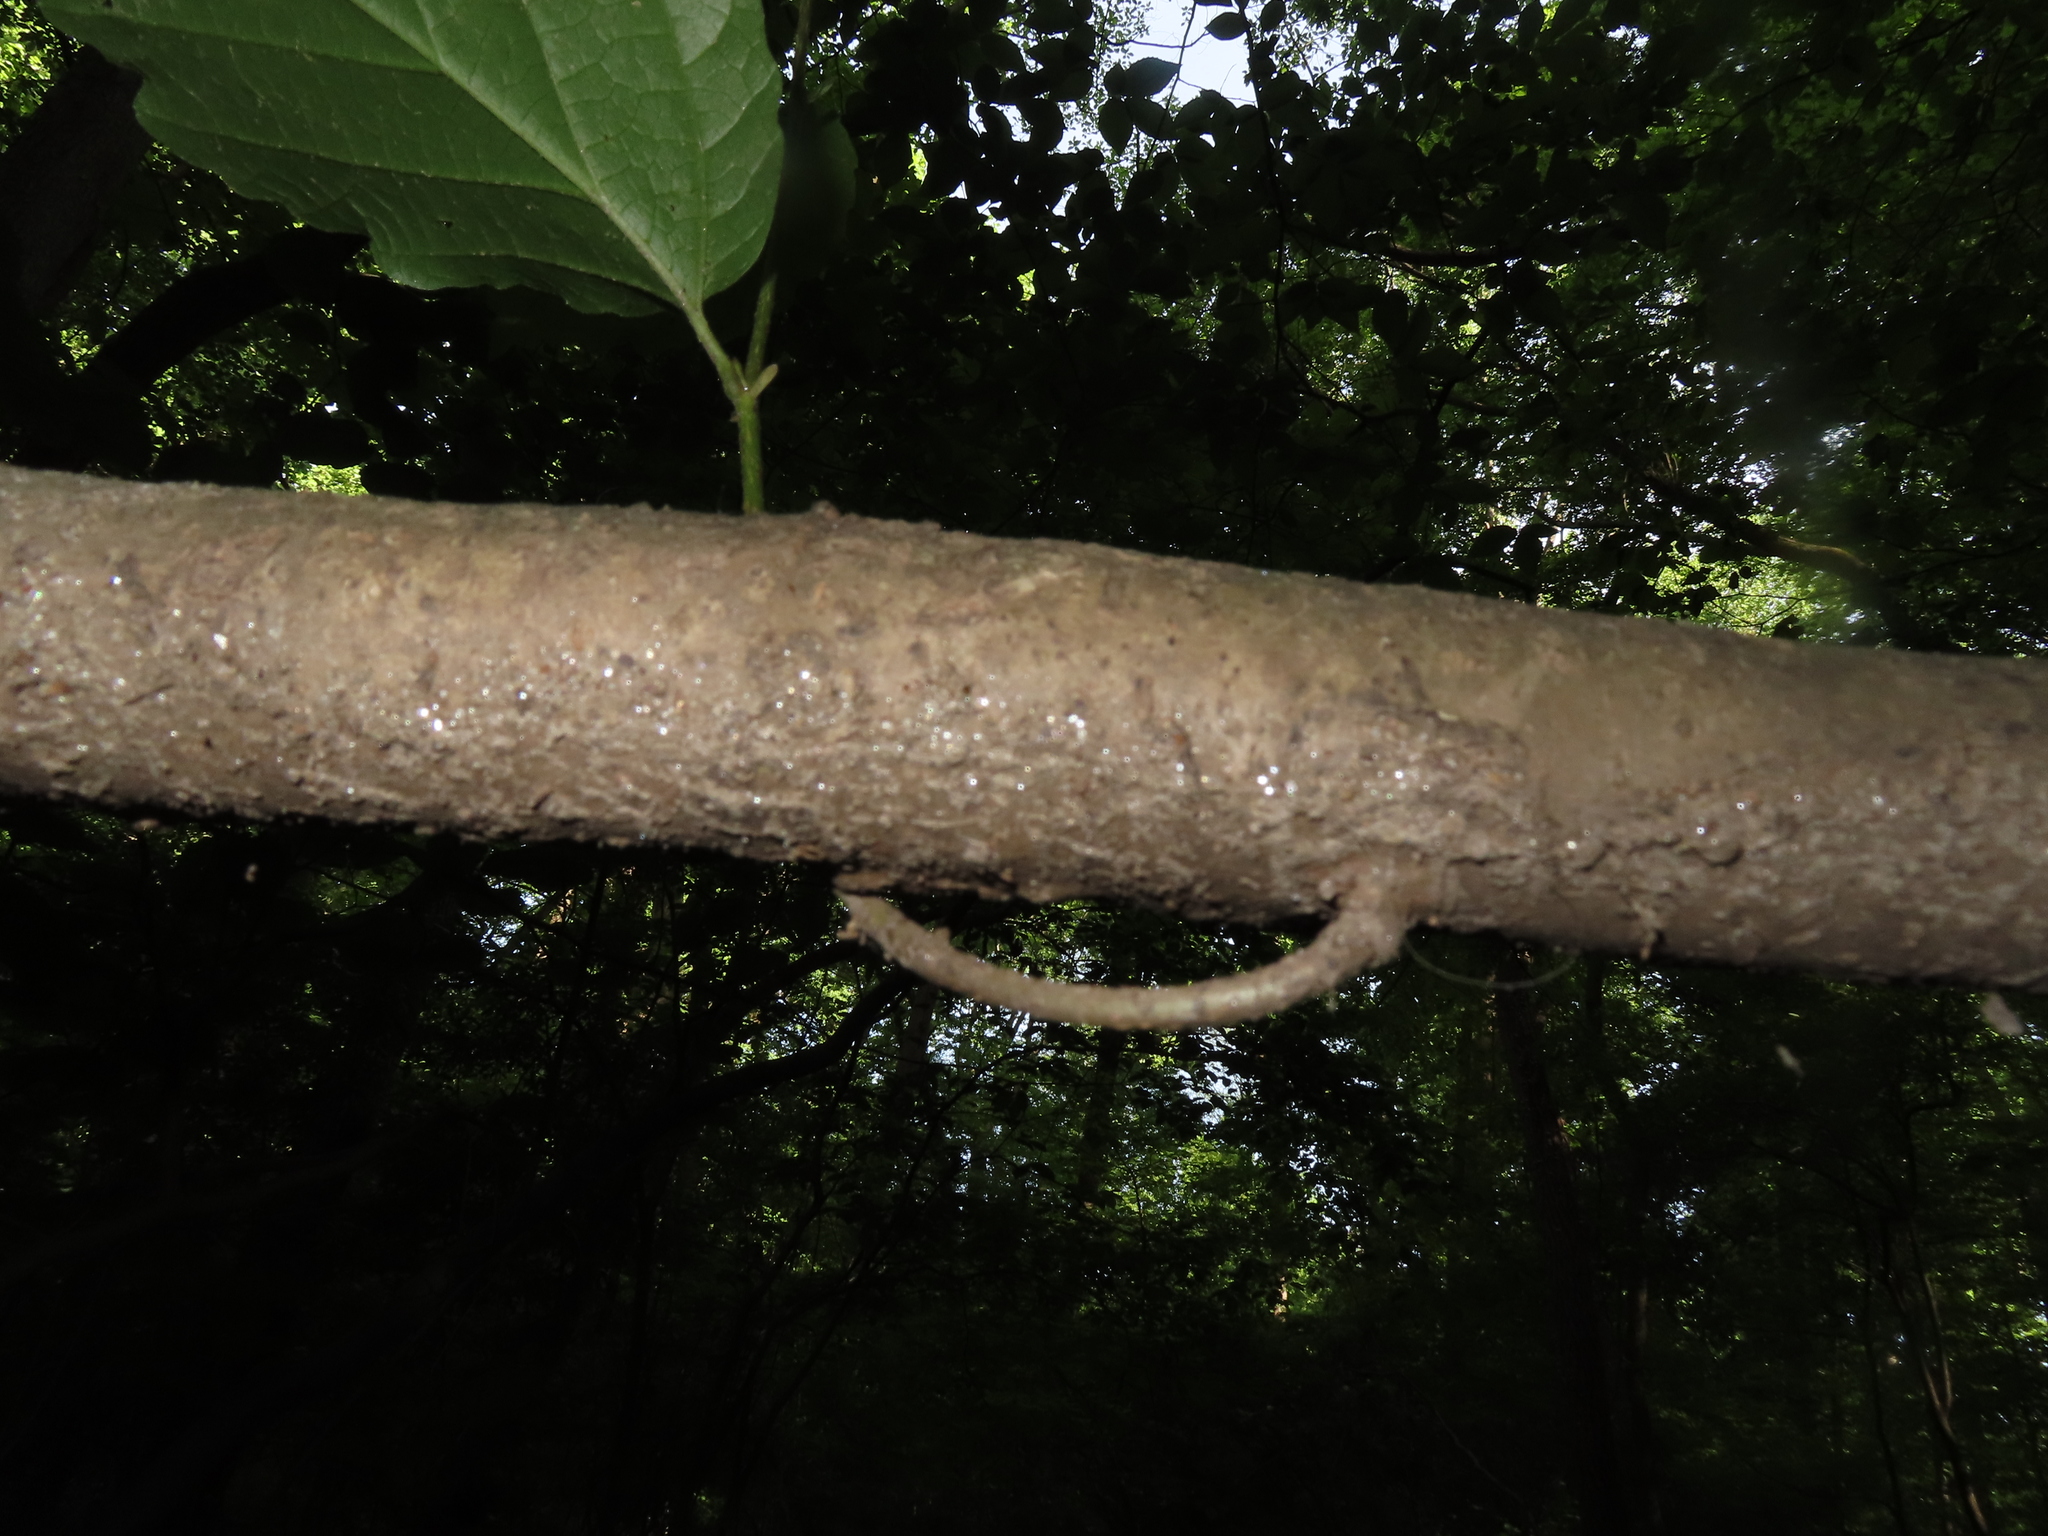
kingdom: Plantae
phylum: Tracheophyta
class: Magnoliopsida
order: Saxifragales
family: Hamamelidaceae
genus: Hamamelis
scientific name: Hamamelis virginiana
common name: Witch-hazel
